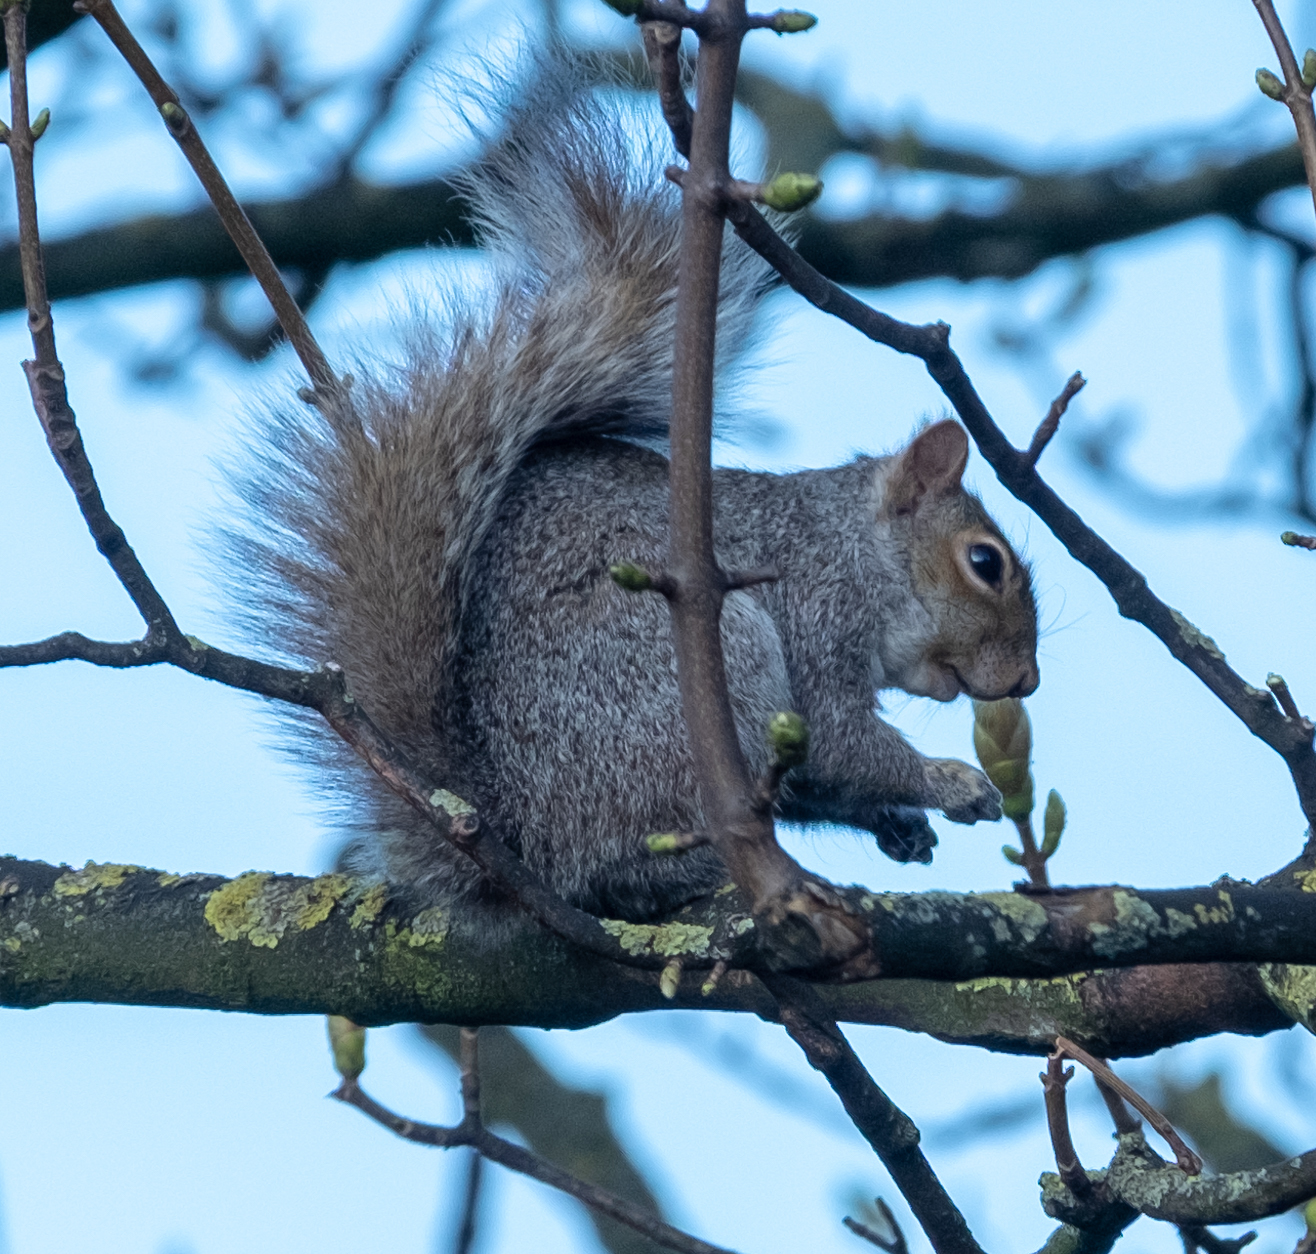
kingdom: Animalia
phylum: Chordata
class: Mammalia
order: Rodentia
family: Sciuridae
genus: Sciurus
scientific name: Sciurus carolinensis
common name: Eastern gray squirrel
